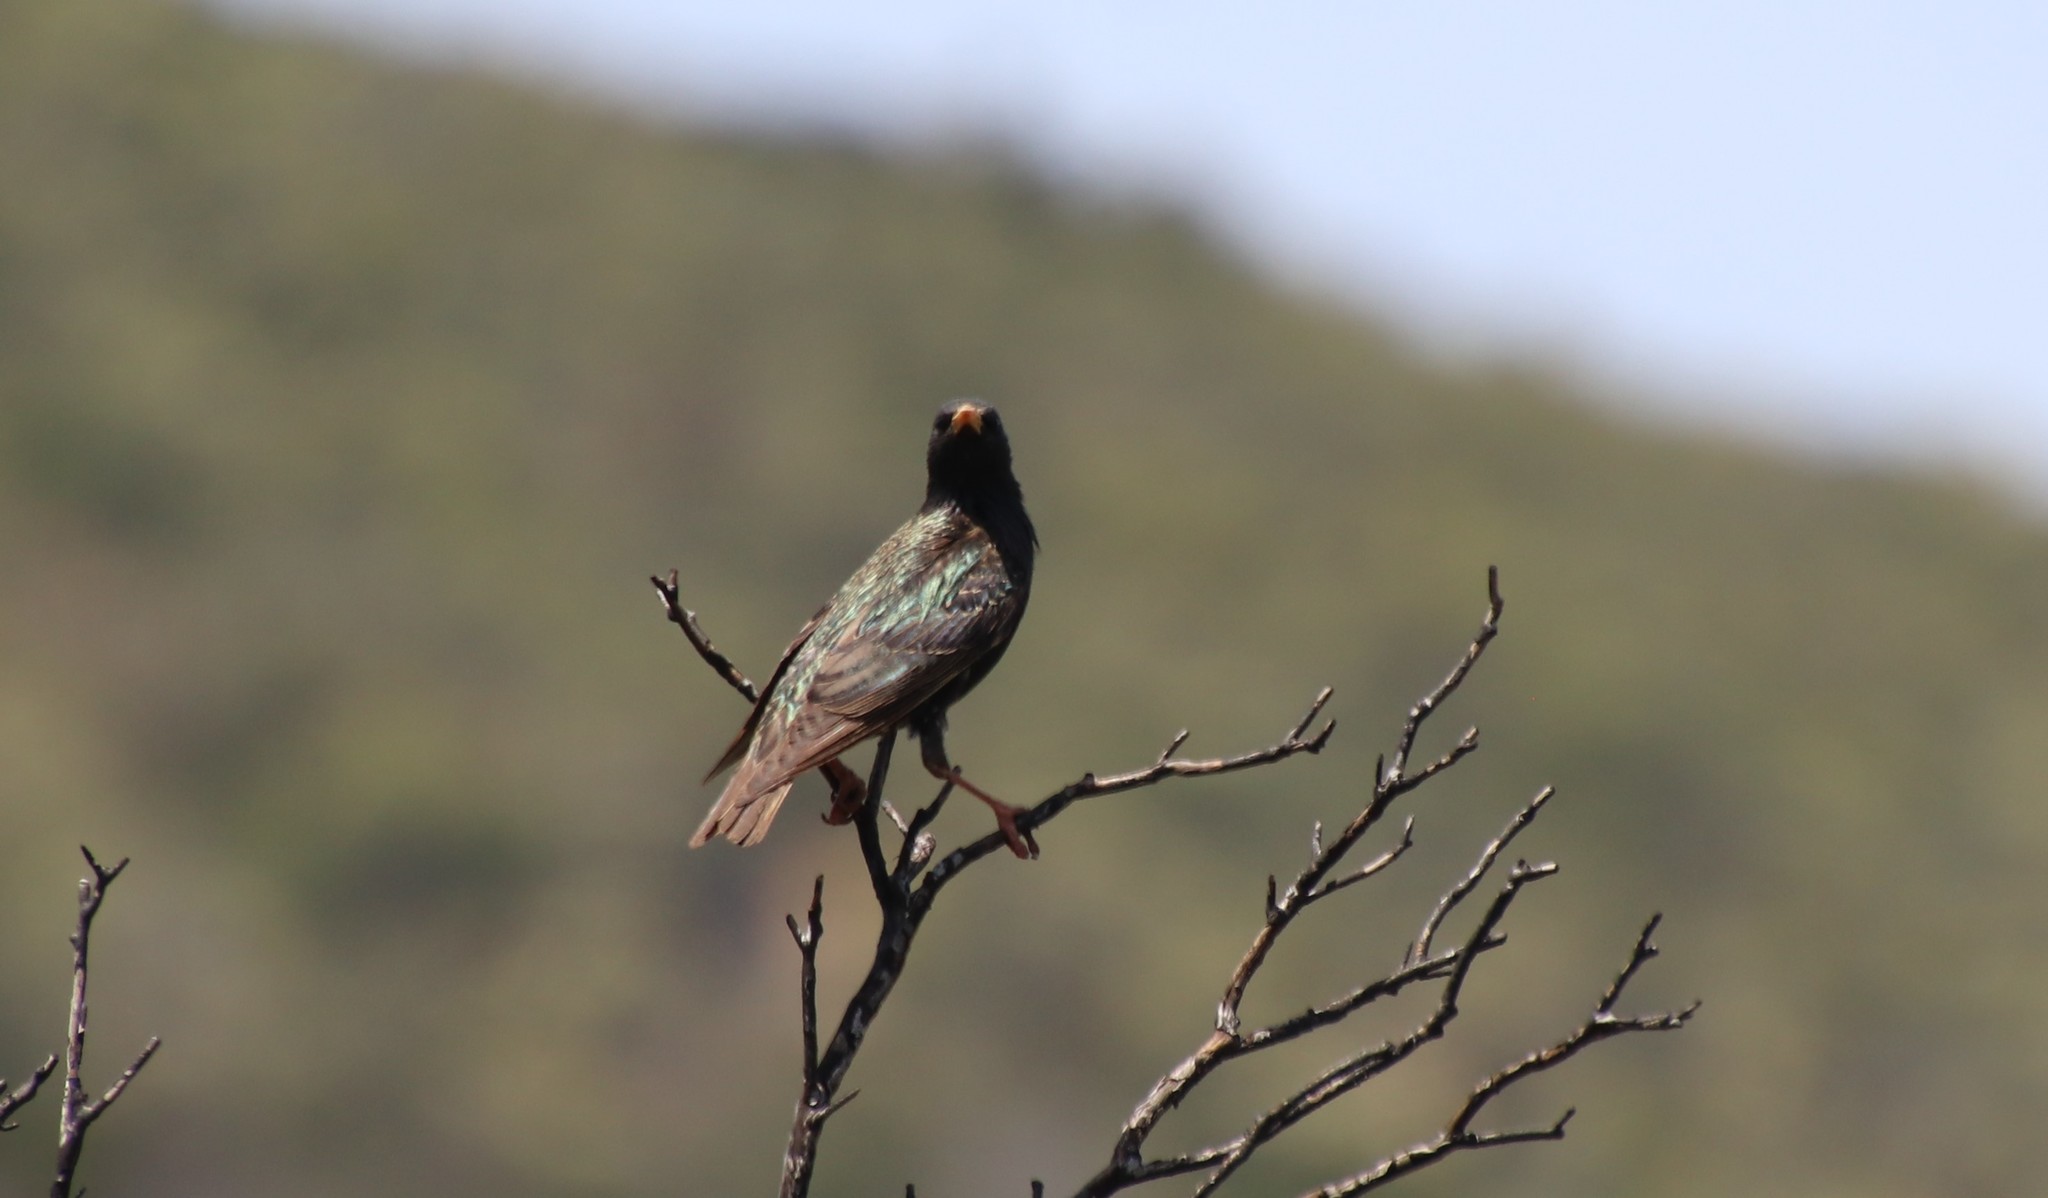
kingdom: Animalia
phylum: Chordata
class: Aves
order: Passeriformes
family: Sturnidae
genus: Sturnus
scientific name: Sturnus vulgaris
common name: Common starling
